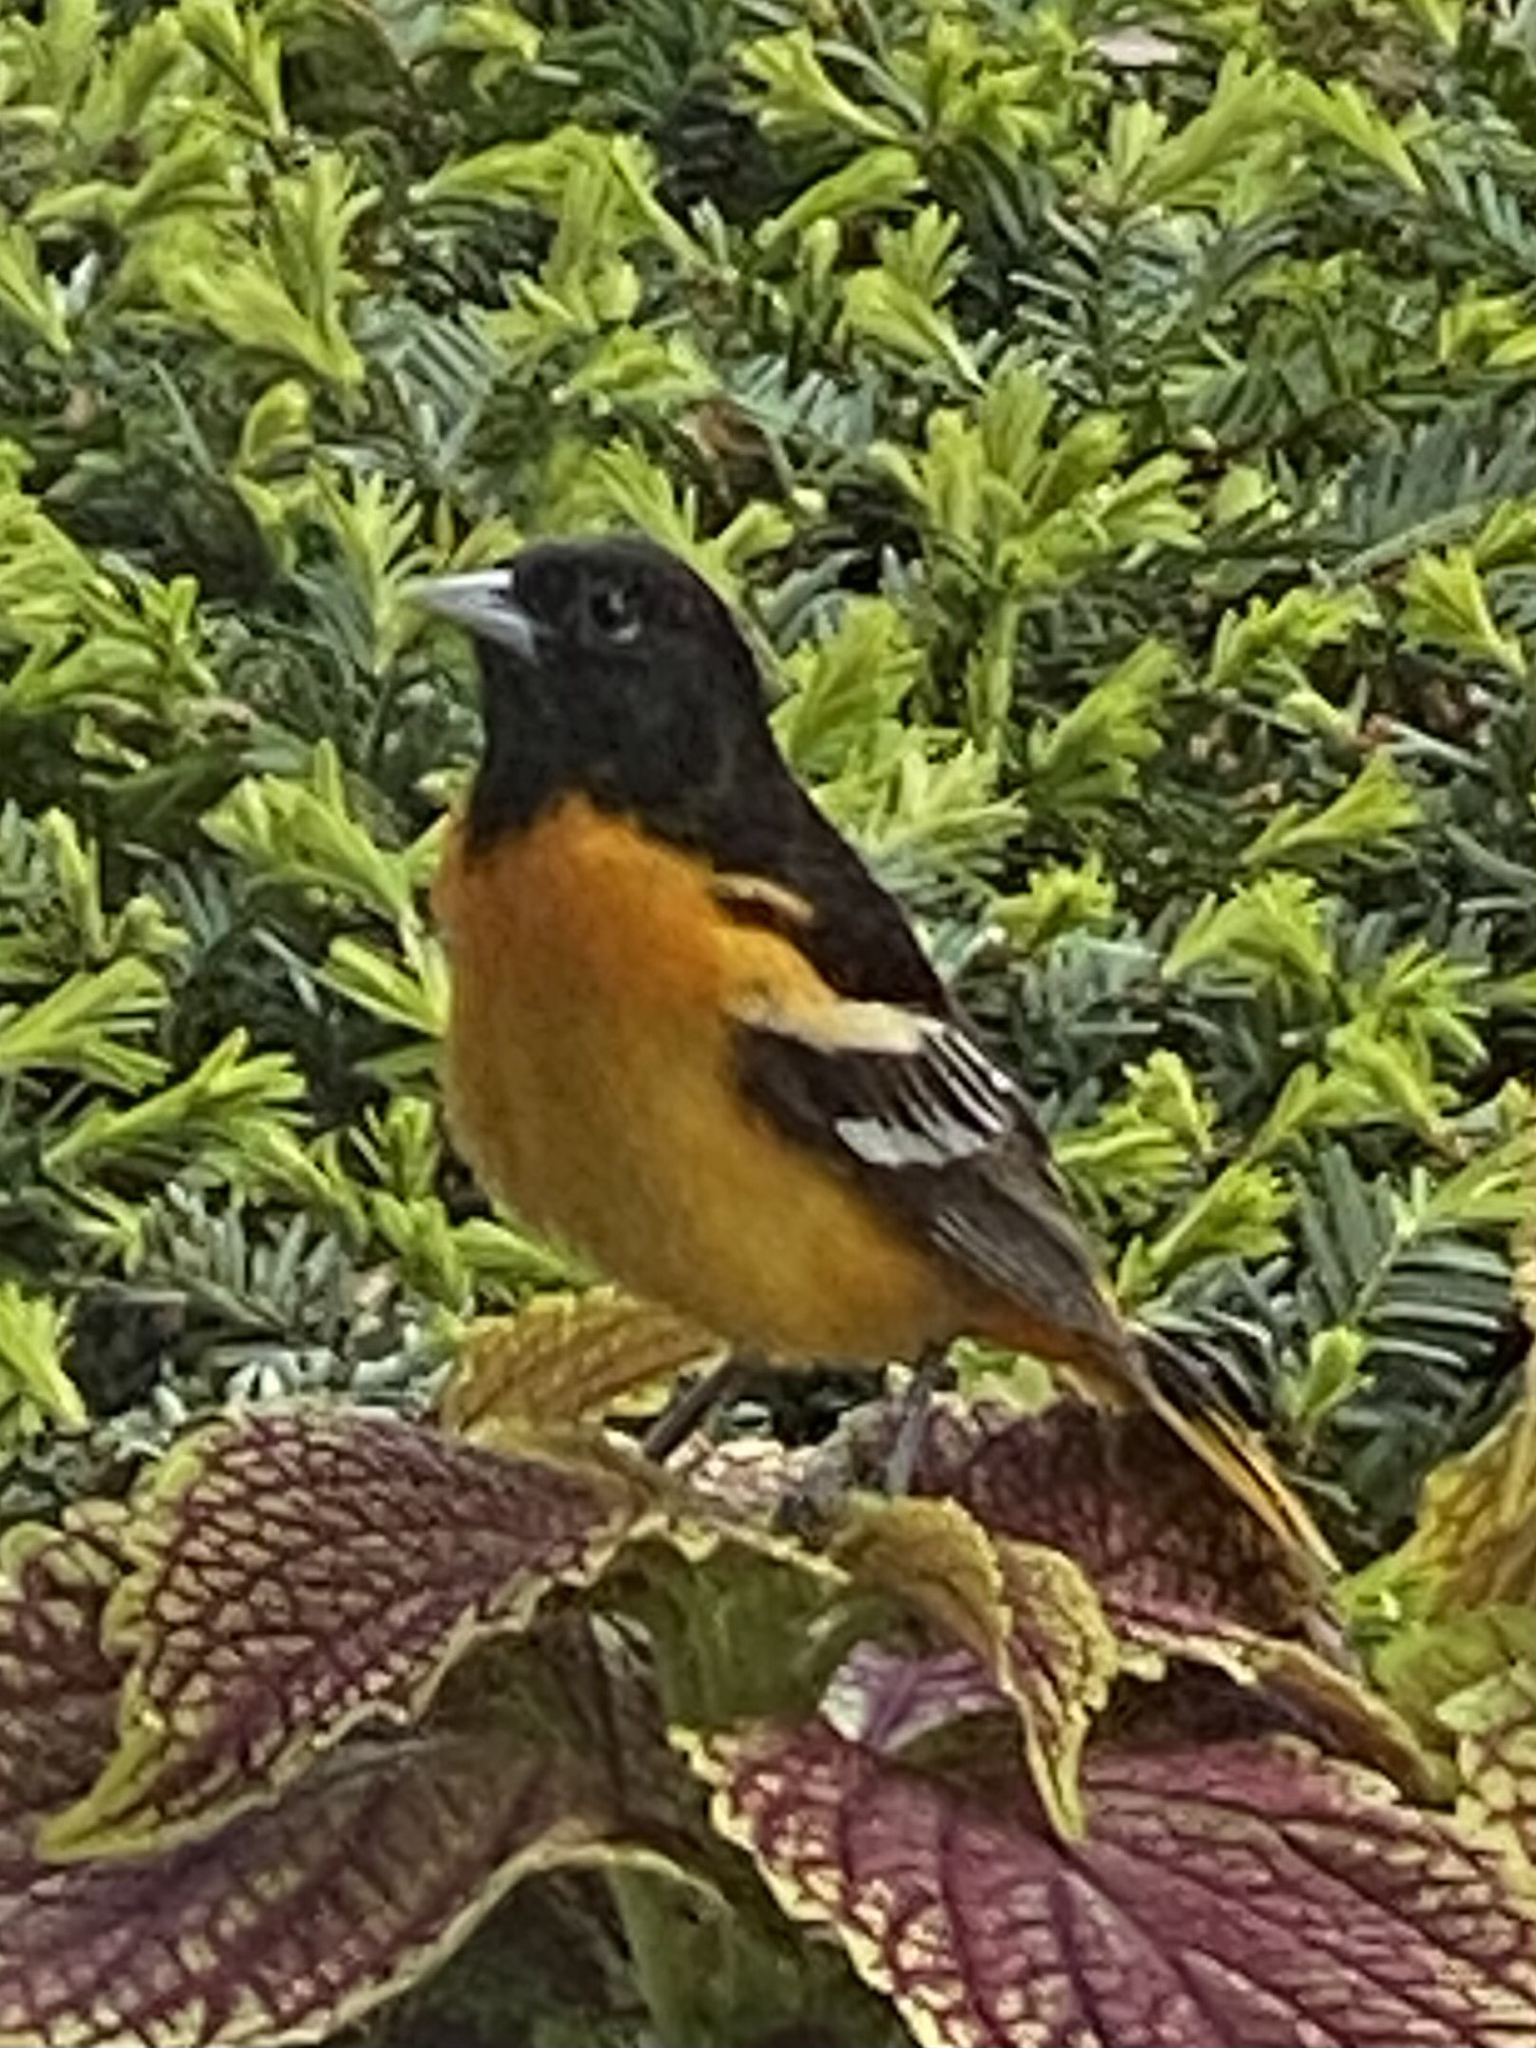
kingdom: Animalia
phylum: Chordata
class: Aves
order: Passeriformes
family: Icteridae
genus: Icterus
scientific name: Icterus galbula
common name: Baltimore oriole
